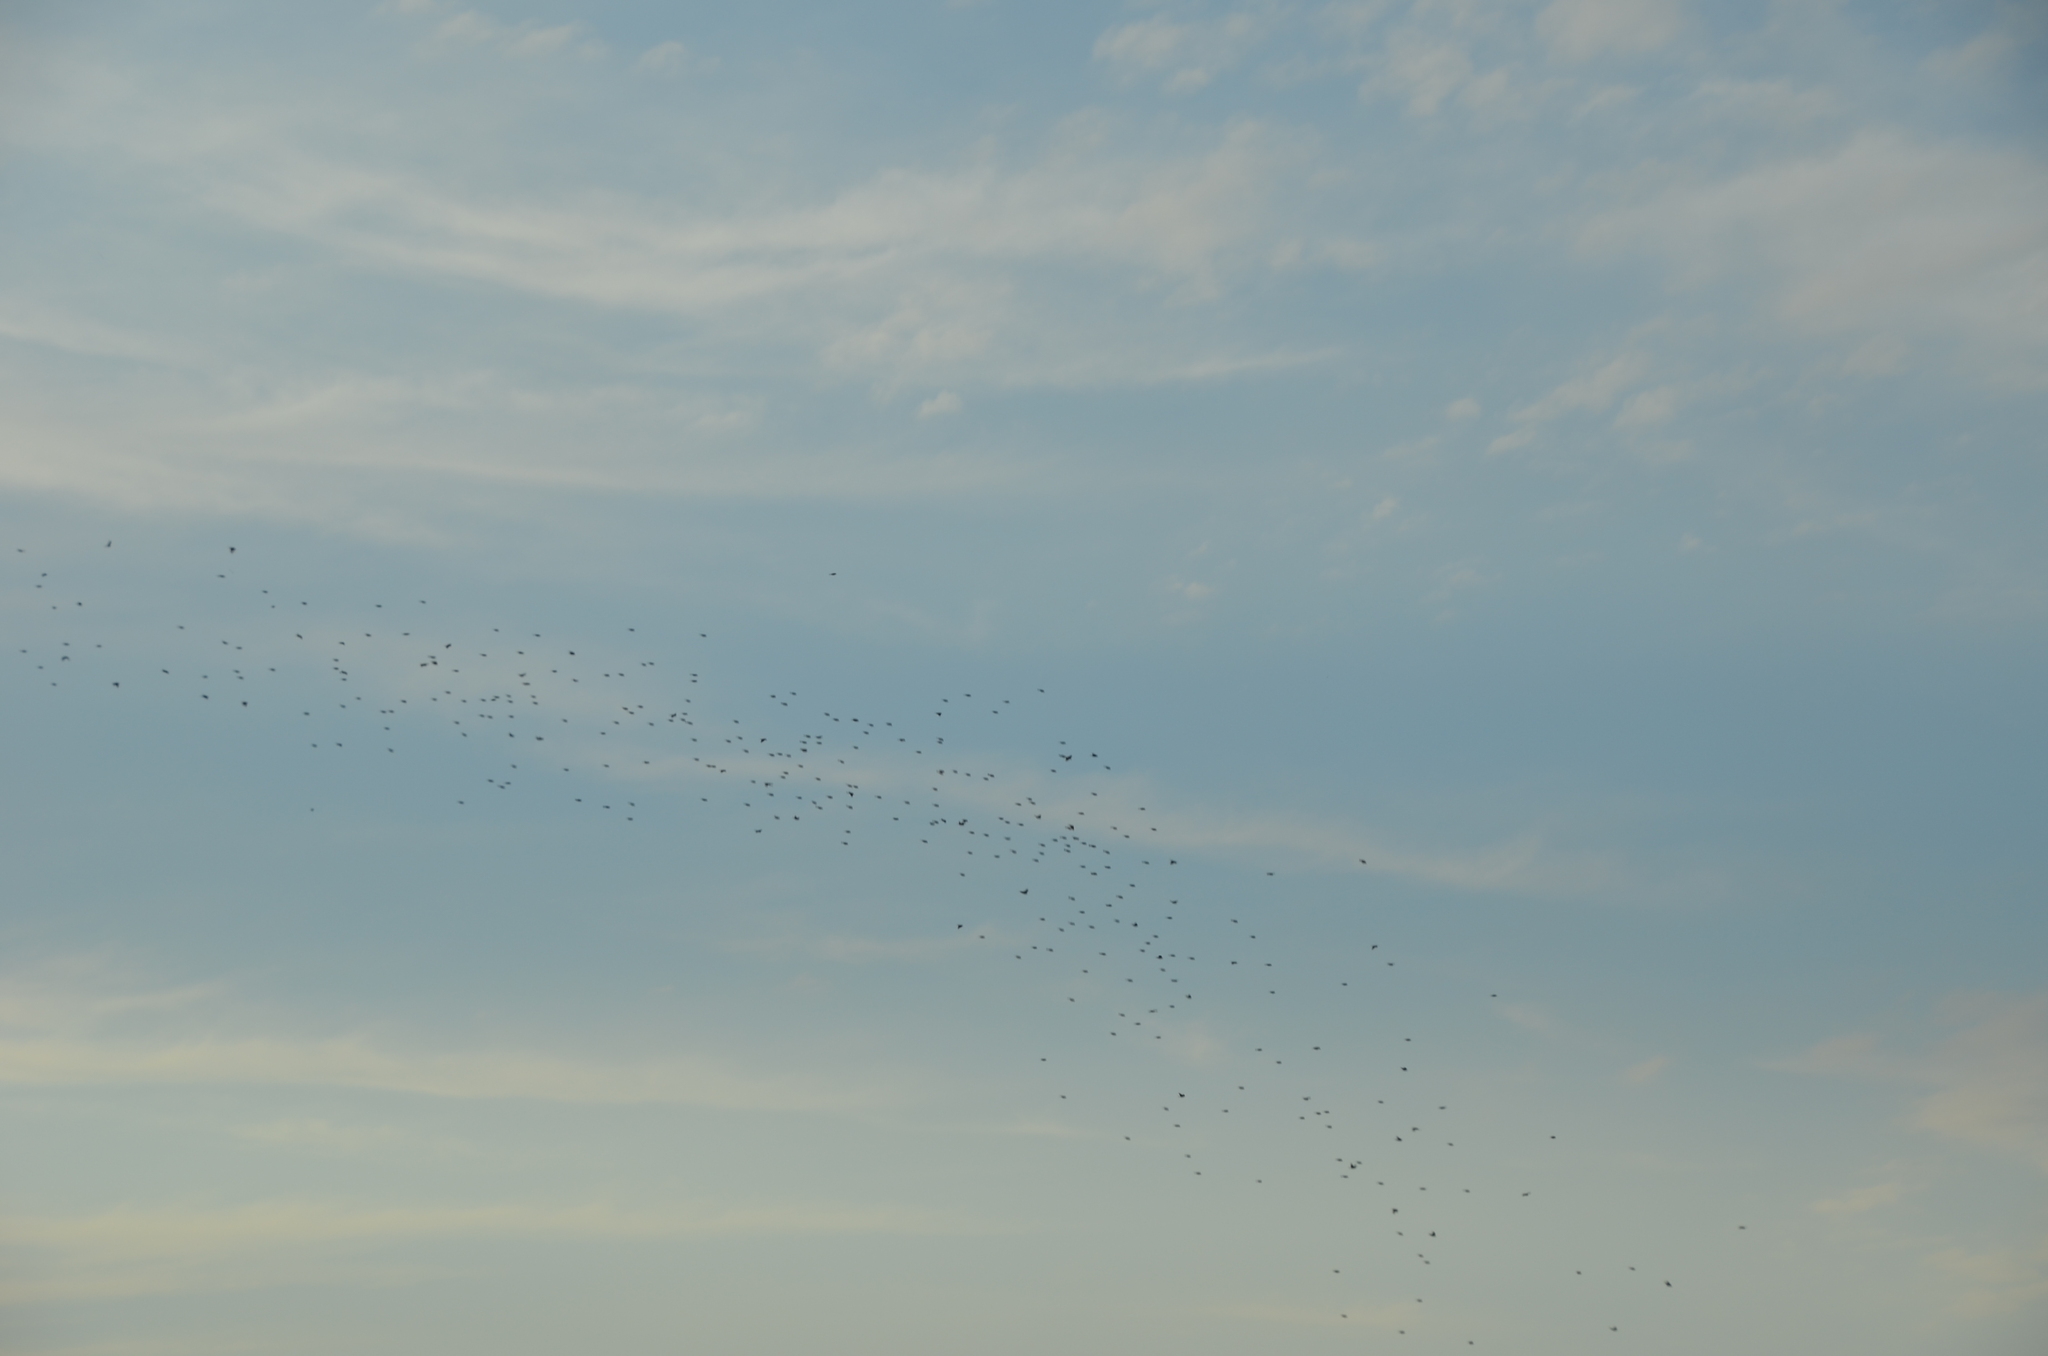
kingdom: Animalia
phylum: Chordata
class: Aves
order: Passeriformes
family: Sturnidae
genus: Sturnus
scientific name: Sturnus vulgaris
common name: Common starling
